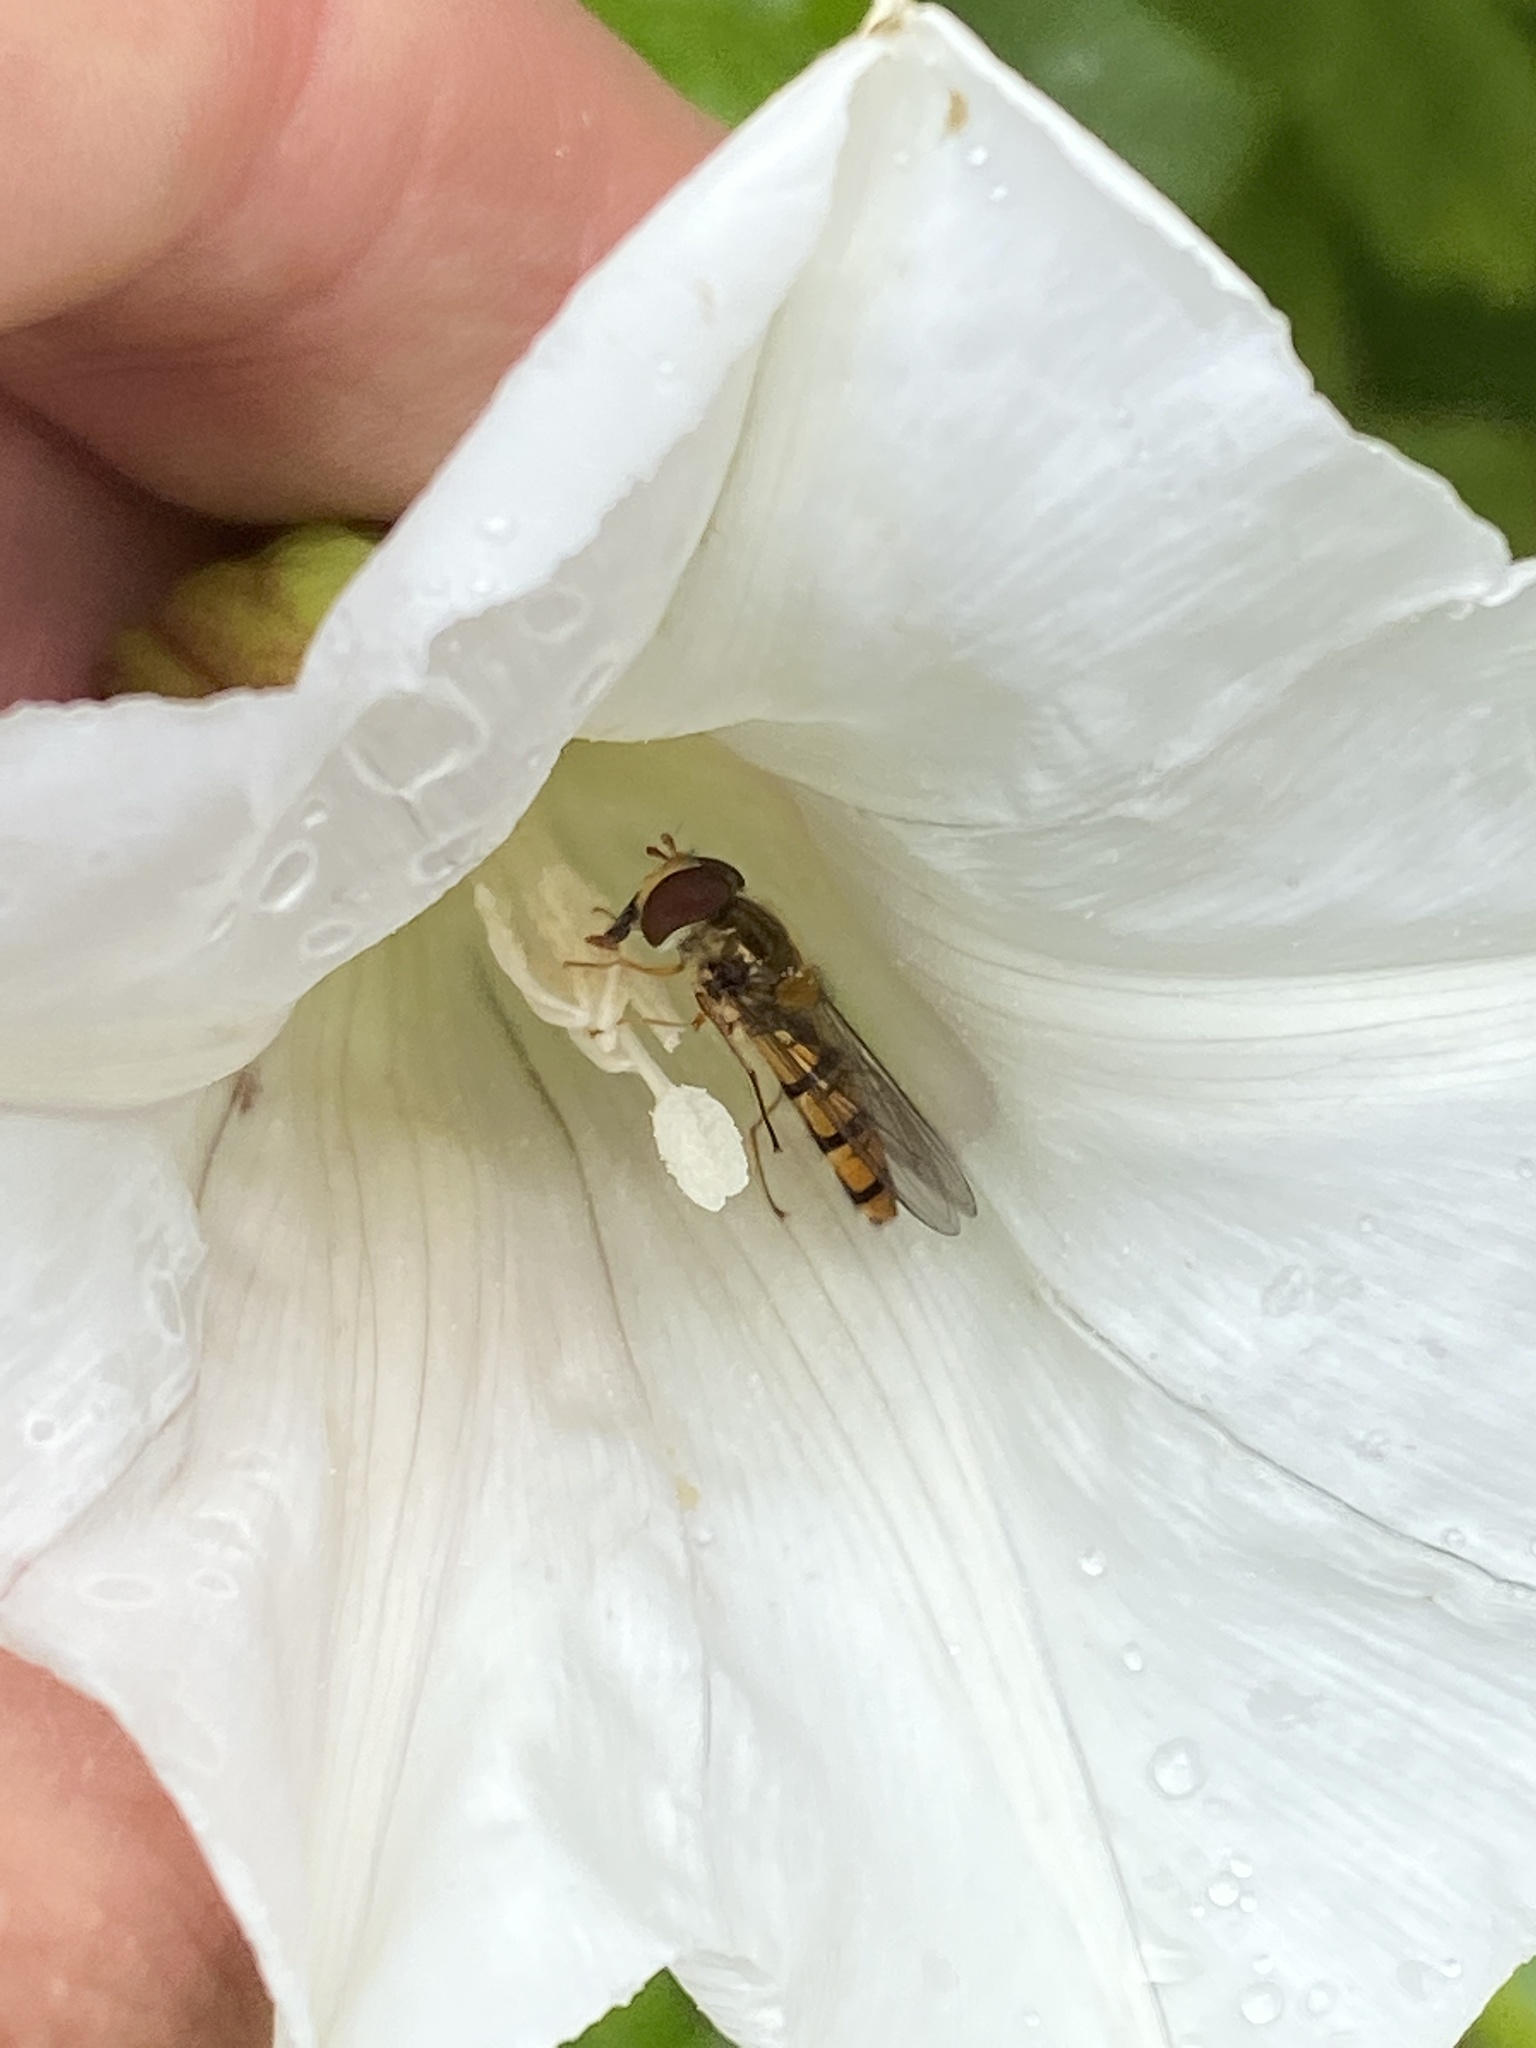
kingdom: Animalia
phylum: Arthropoda
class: Insecta
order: Diptera
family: Syrphidae
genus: Episyrphus
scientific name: Episyrphus balteatus
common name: Marmalade hoverfly
